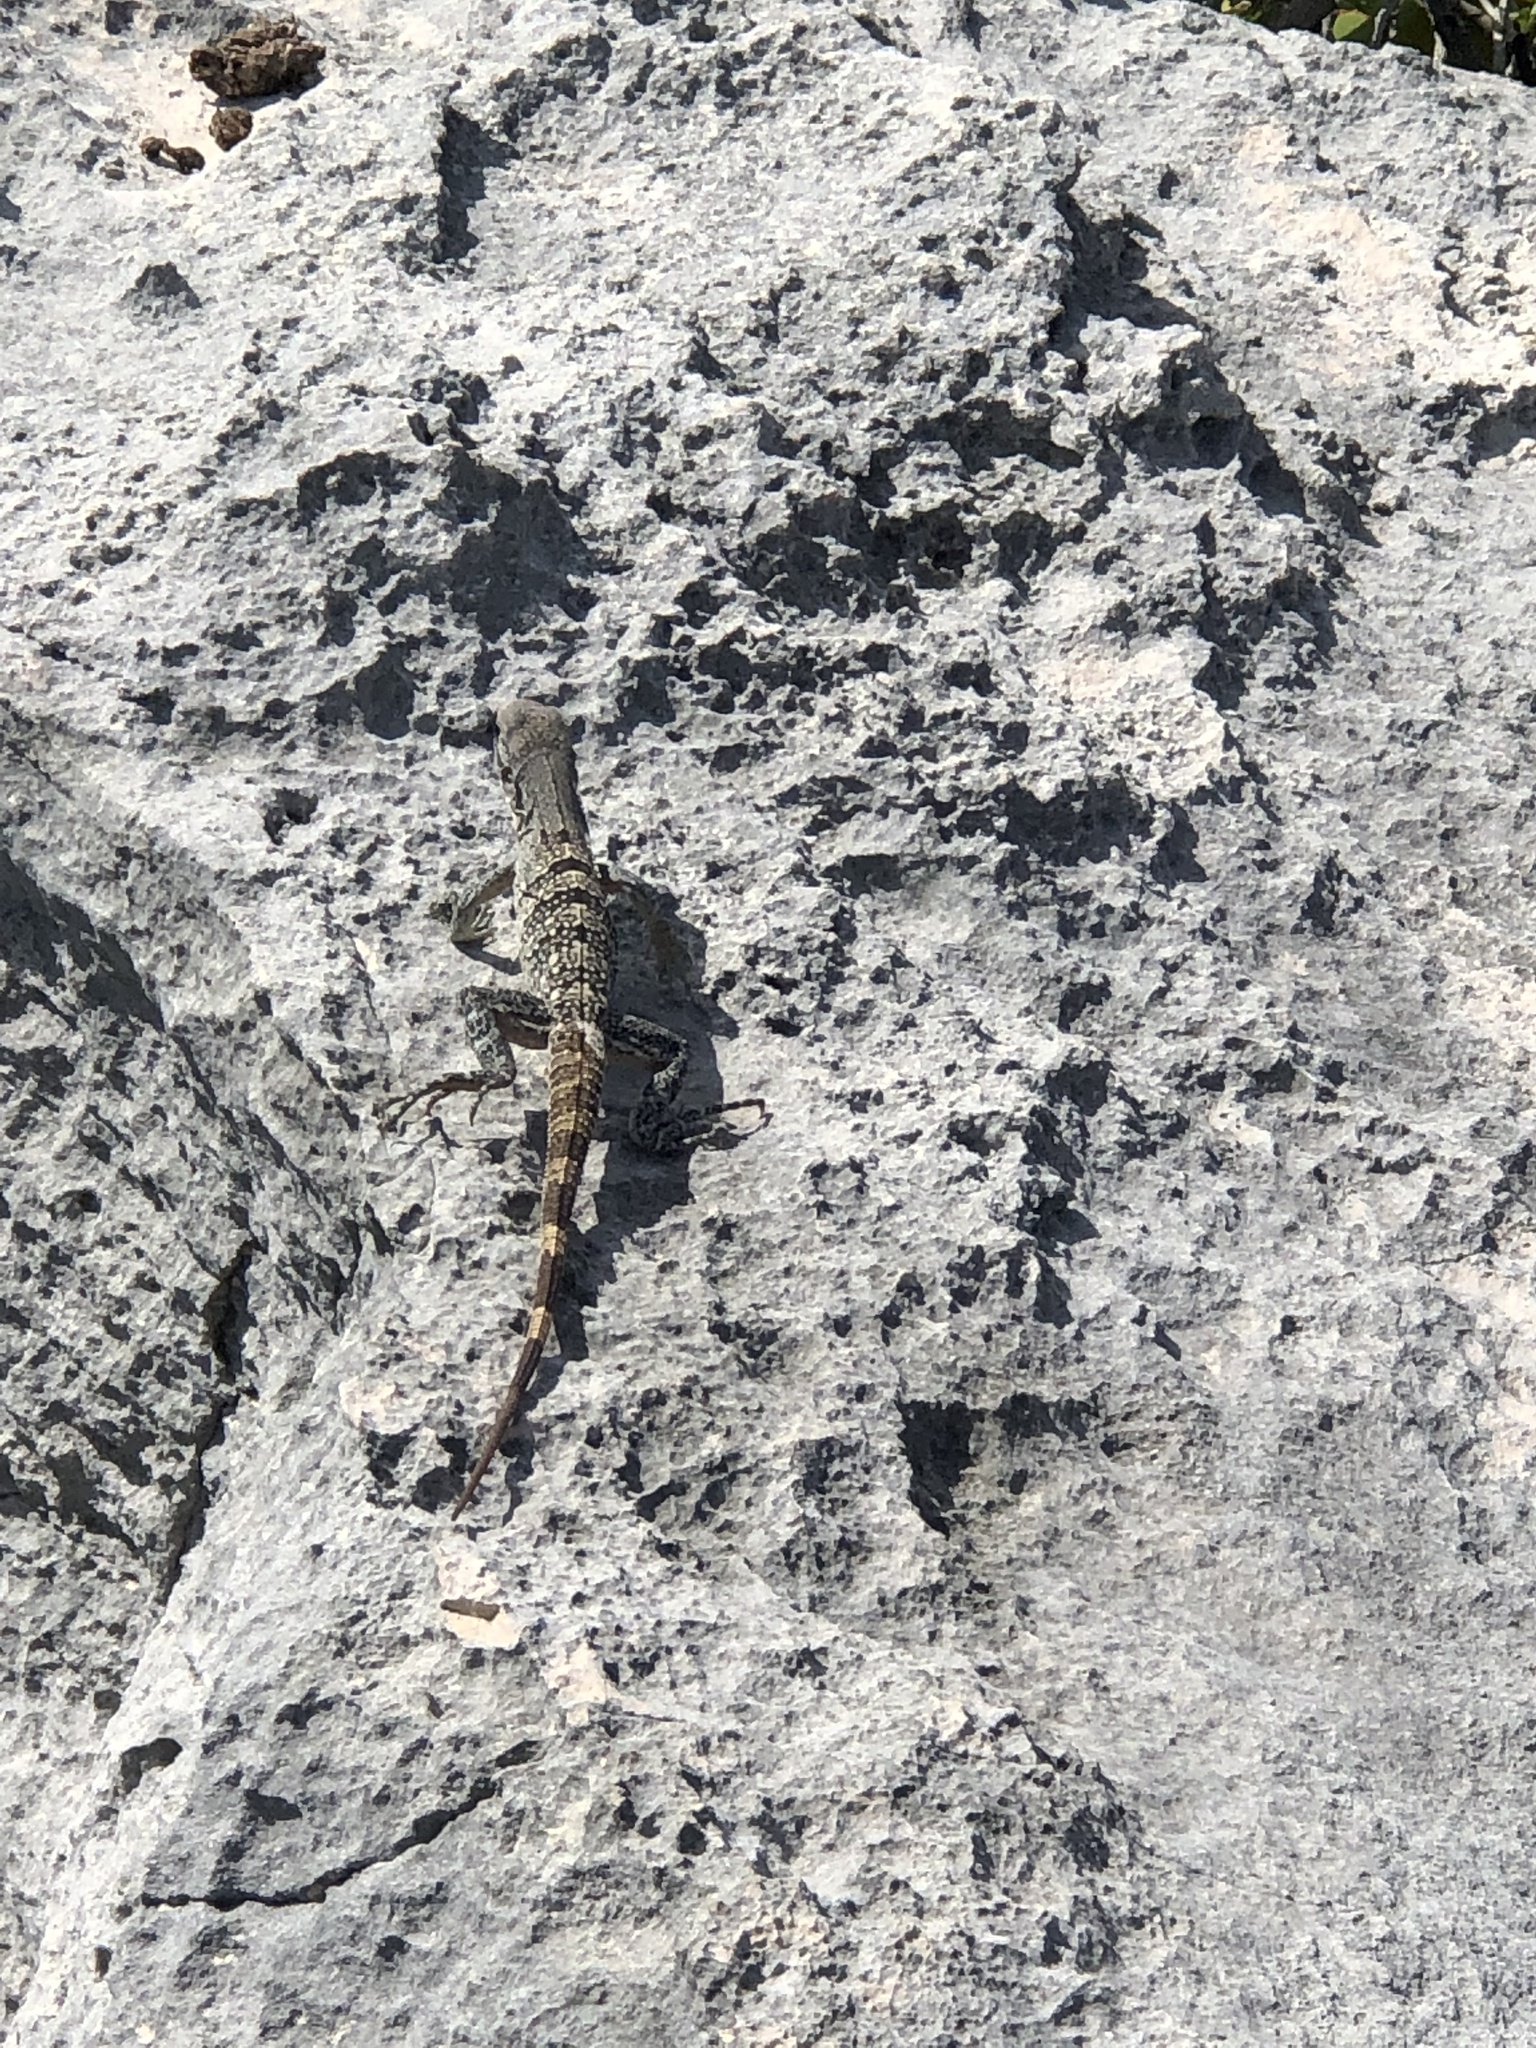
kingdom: Animalia
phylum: Chordata
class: Squamata
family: Iguanidae
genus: Ctenosaura
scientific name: Ctenosaura similis
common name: Black spiny-tailed iguana
